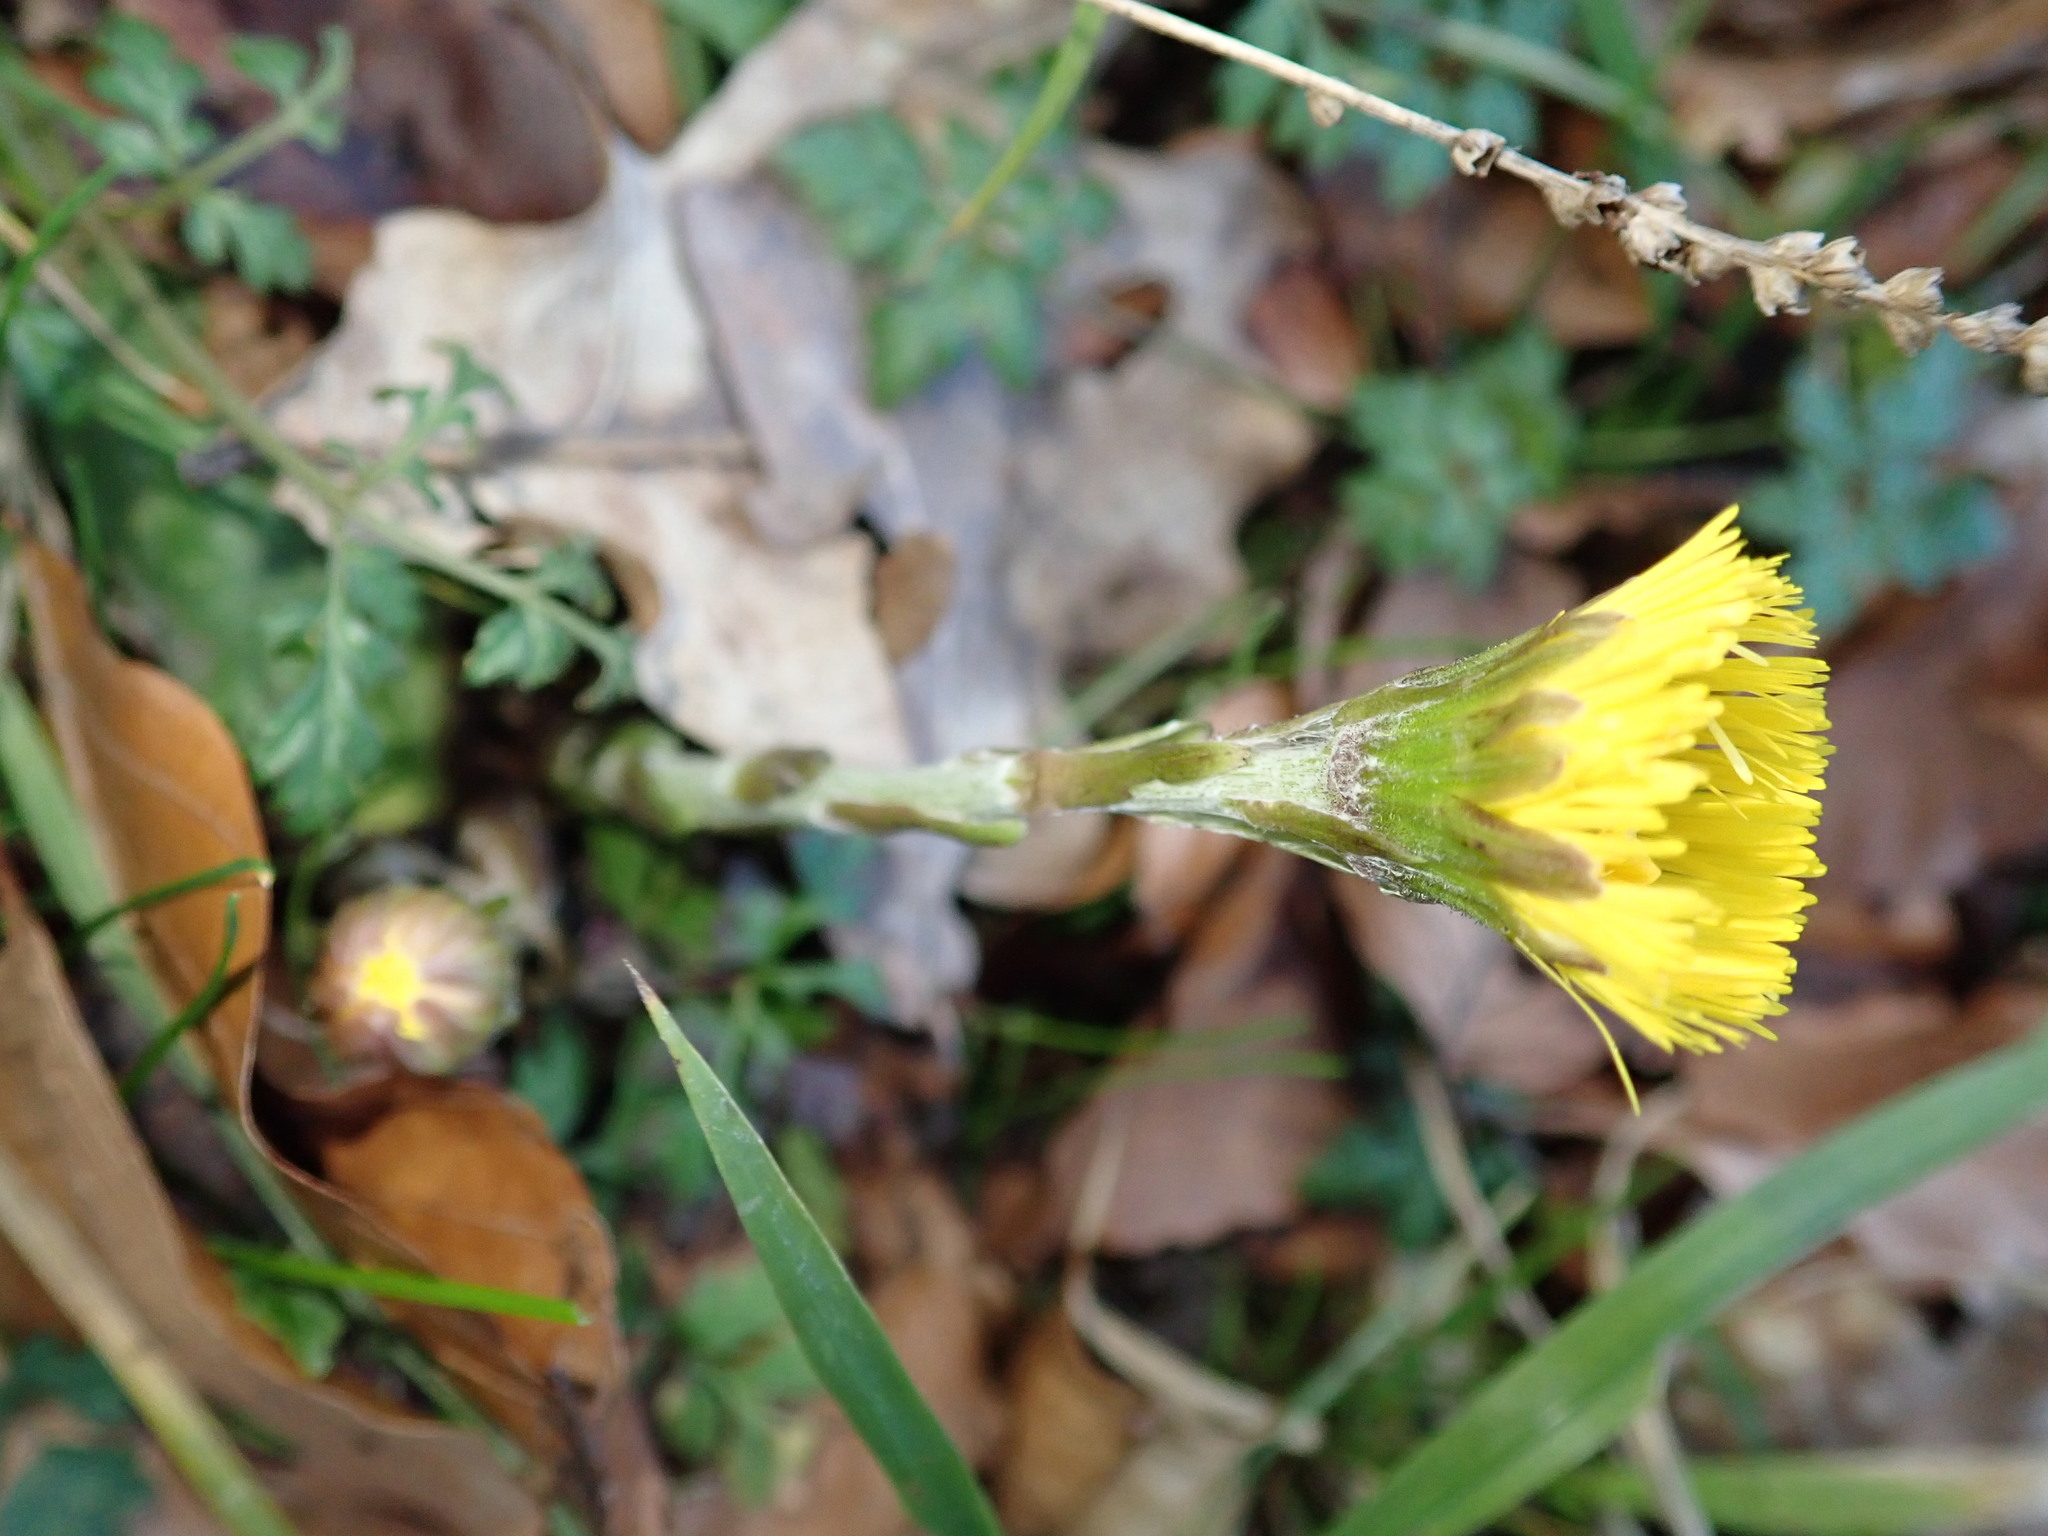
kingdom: Plantae
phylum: Tracheophyta
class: Magnoliopsida
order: Asterales
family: Asteraceae
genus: Tussilago
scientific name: Tussilago farfara
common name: Coltsfoot
